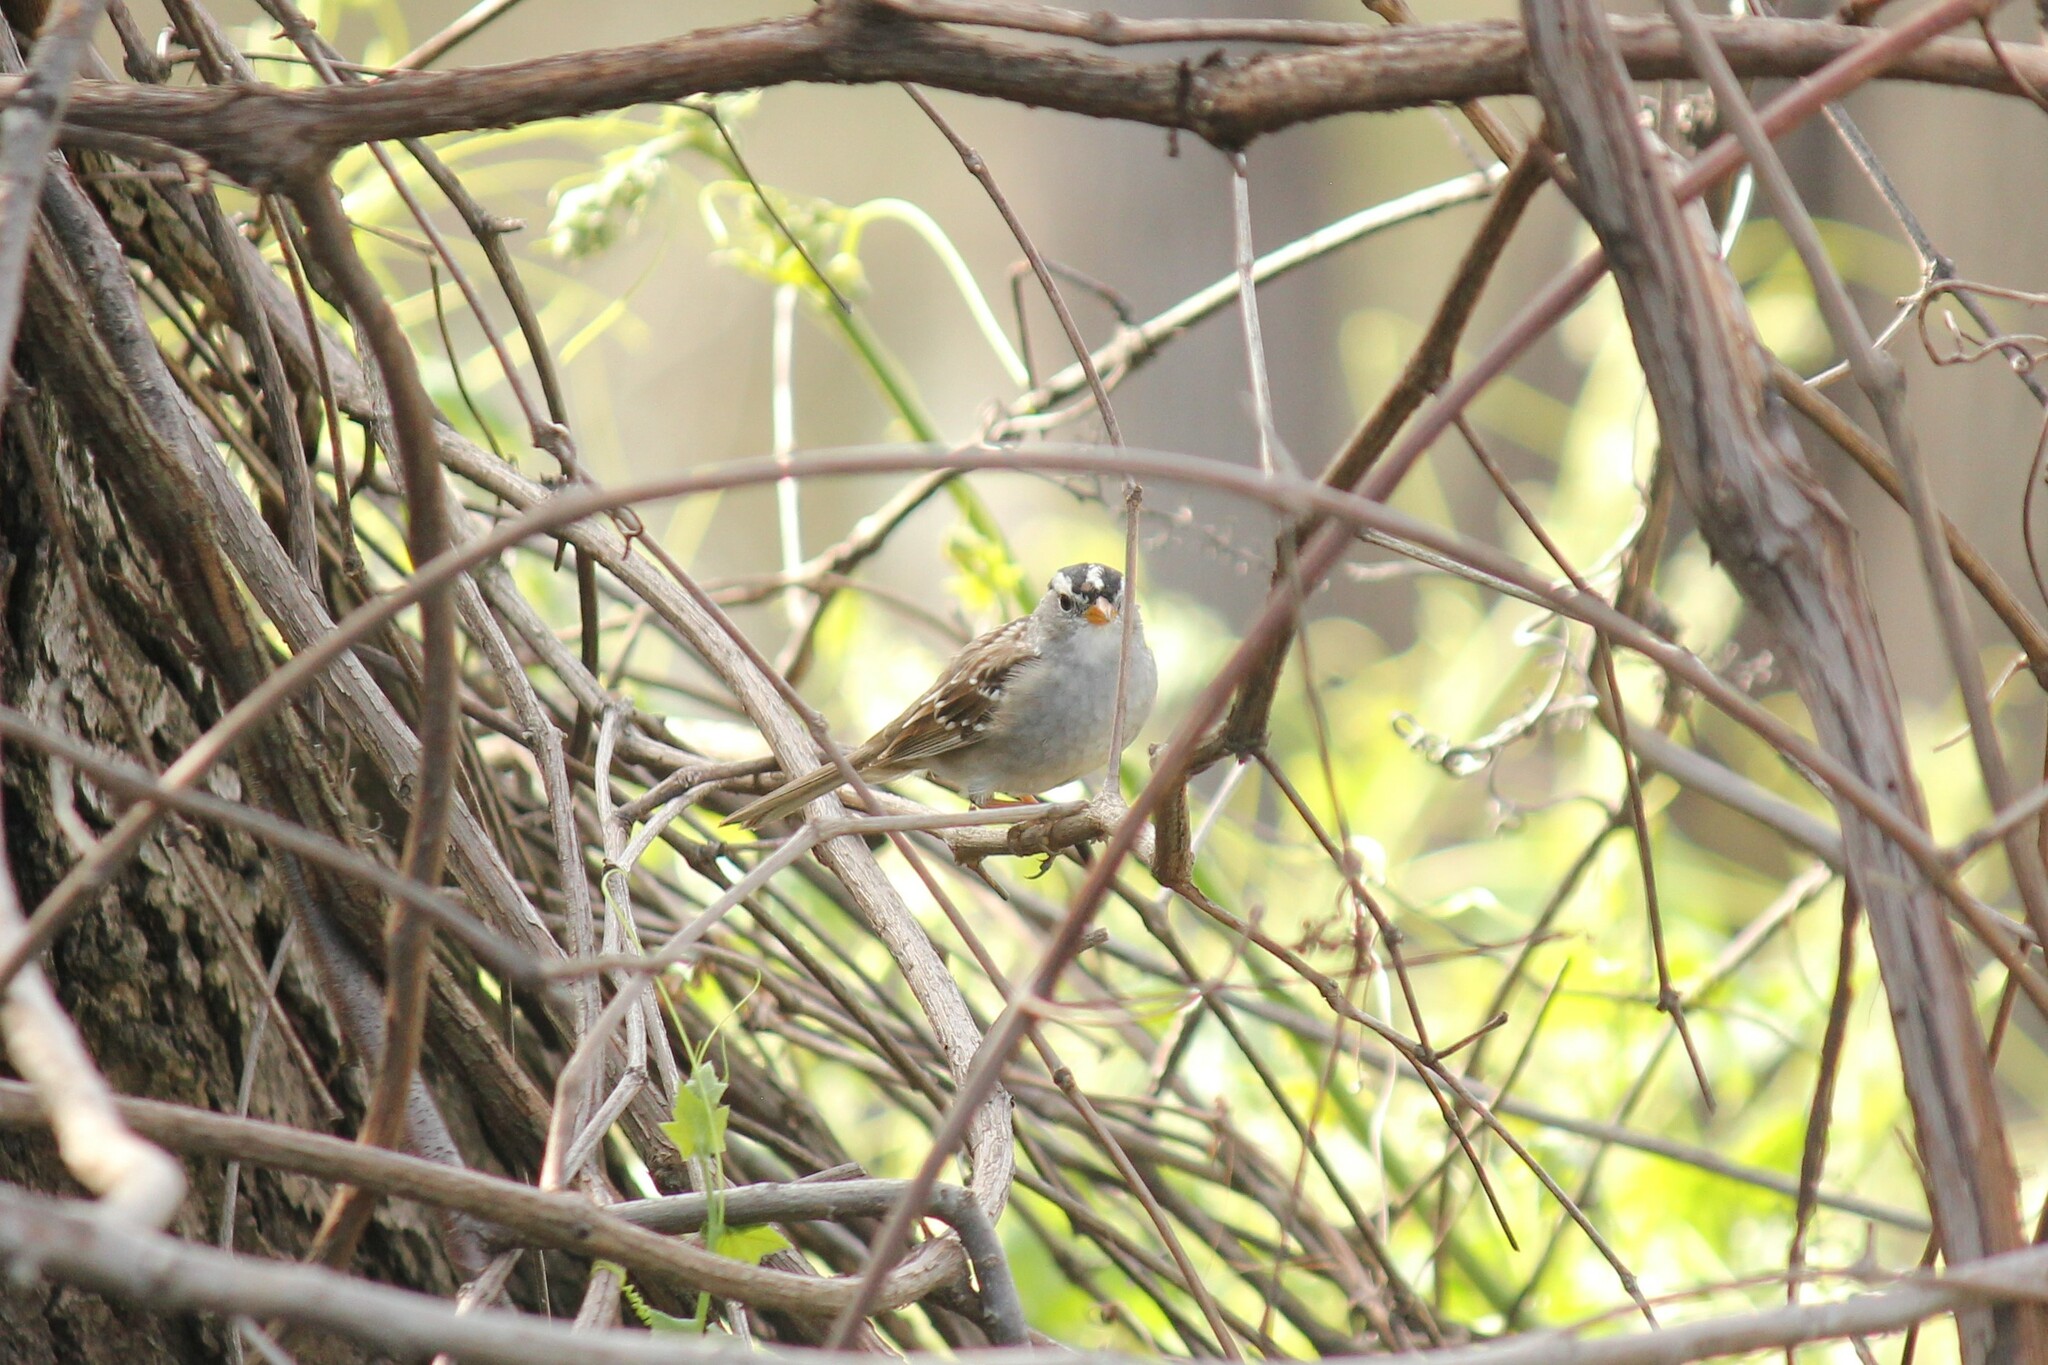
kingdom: Animalia
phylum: Chordata
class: Aves
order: Passeriformes
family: Passerellidae
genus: Zonotrichia
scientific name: Zonotrichia leucophrys
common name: White-crowned sparrow
